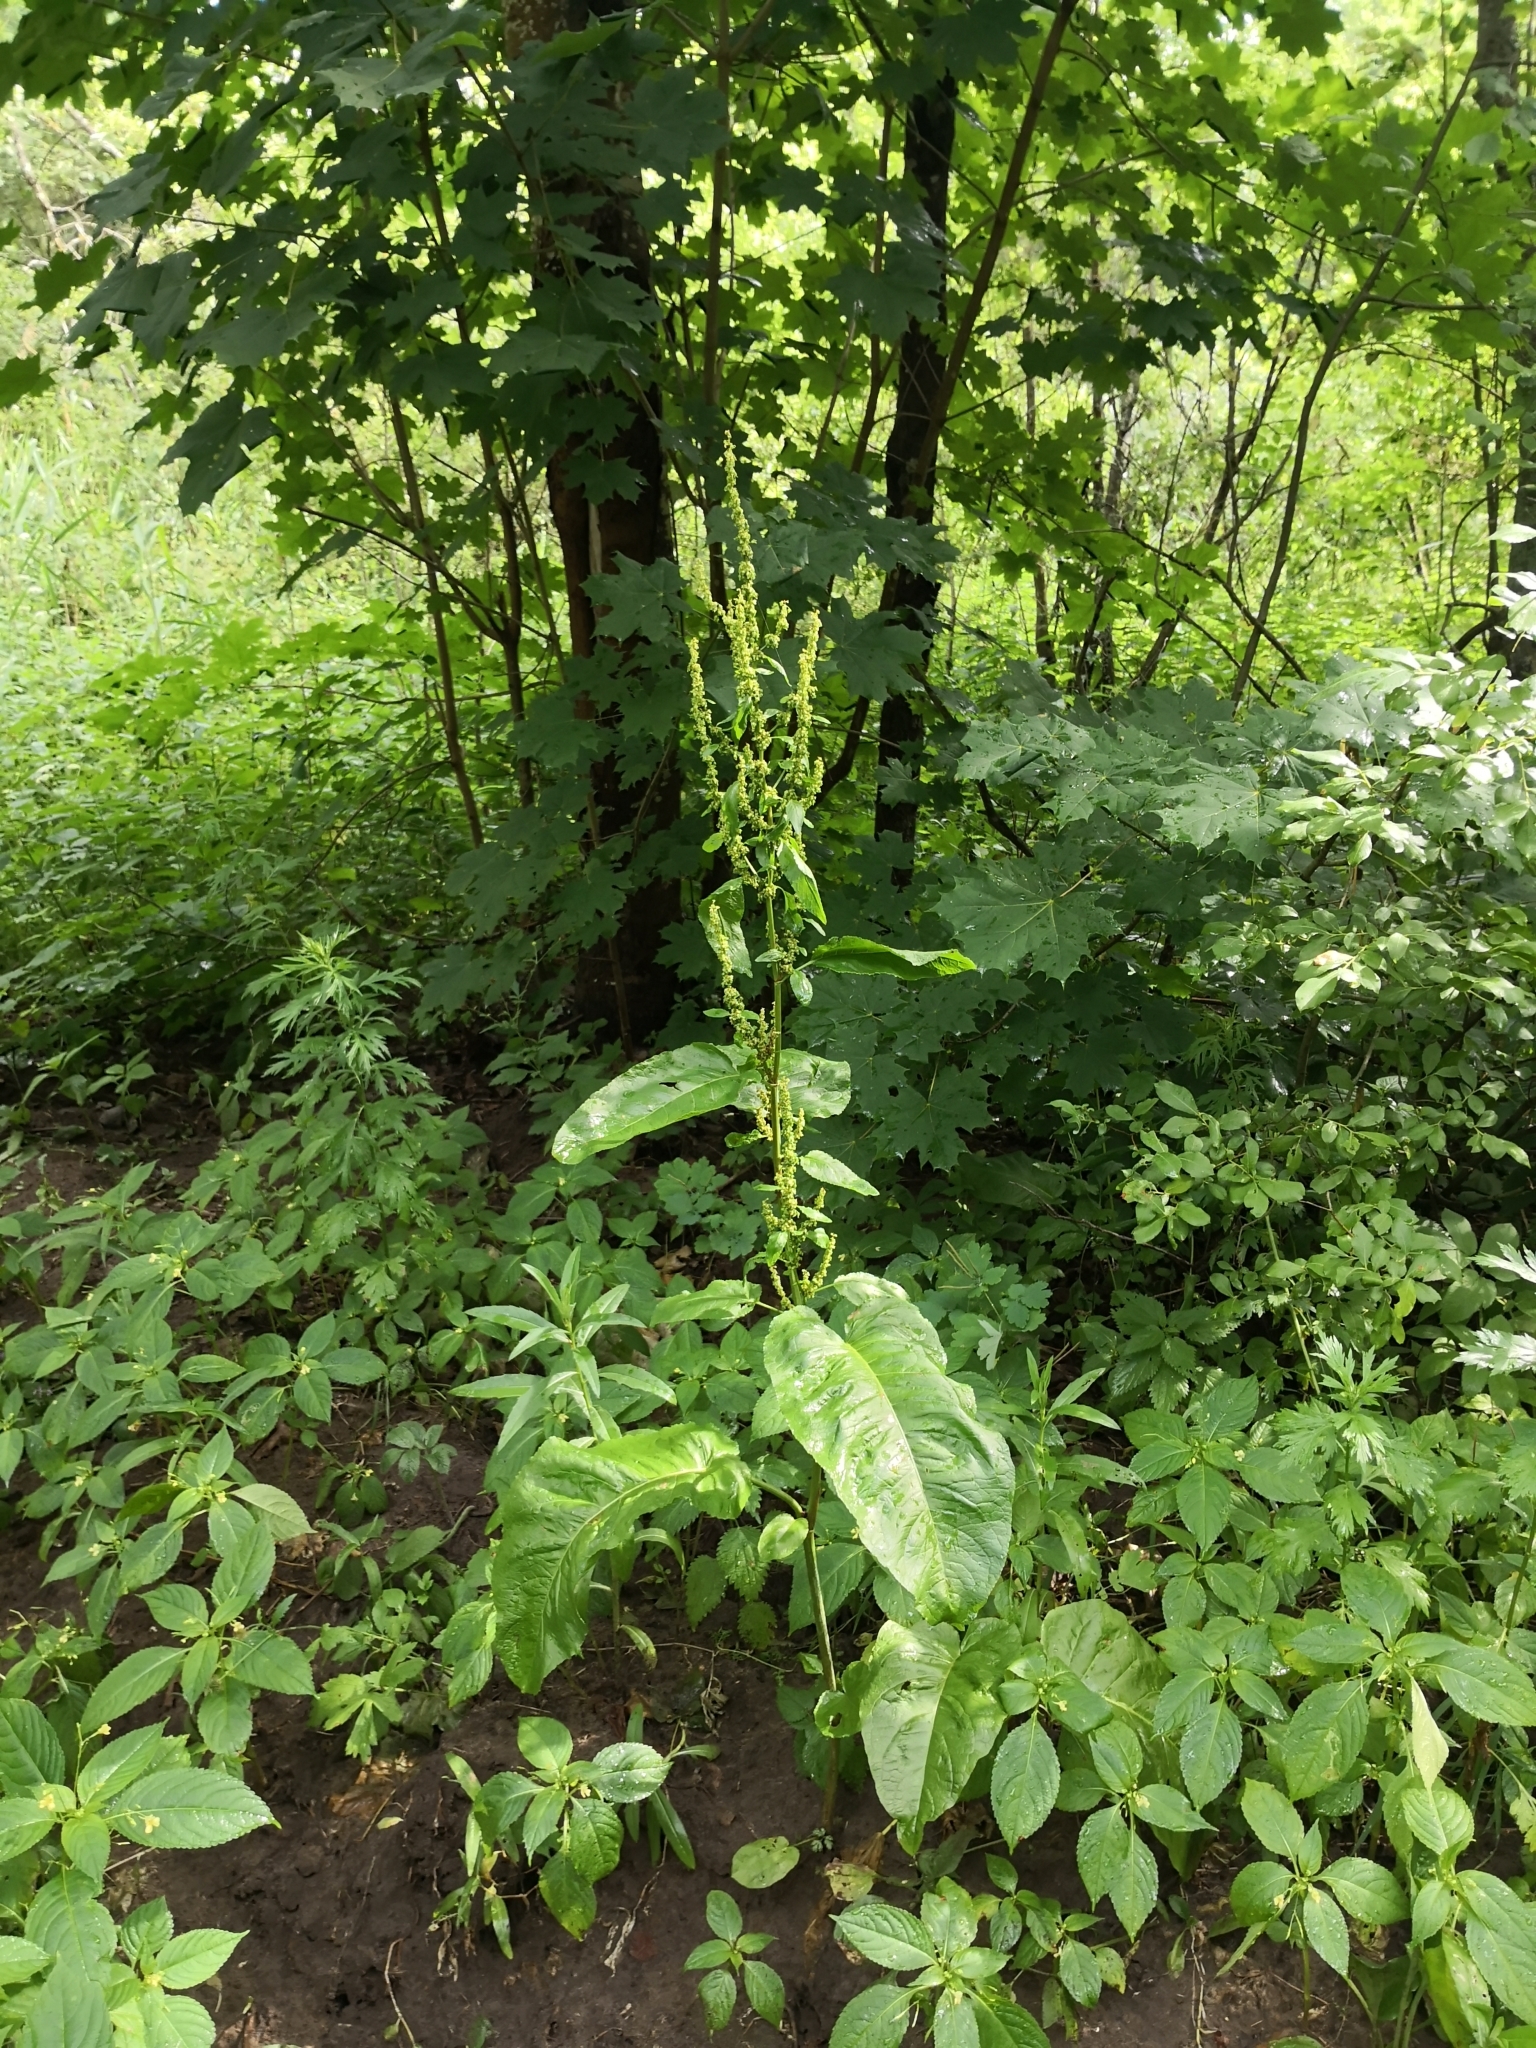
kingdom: Plantae
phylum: Tracheophyta
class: Magnoliopsida
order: Caryophyllales
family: Polygonaceae
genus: Rumex
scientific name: Rumex obtusifolius
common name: Bitter dock
